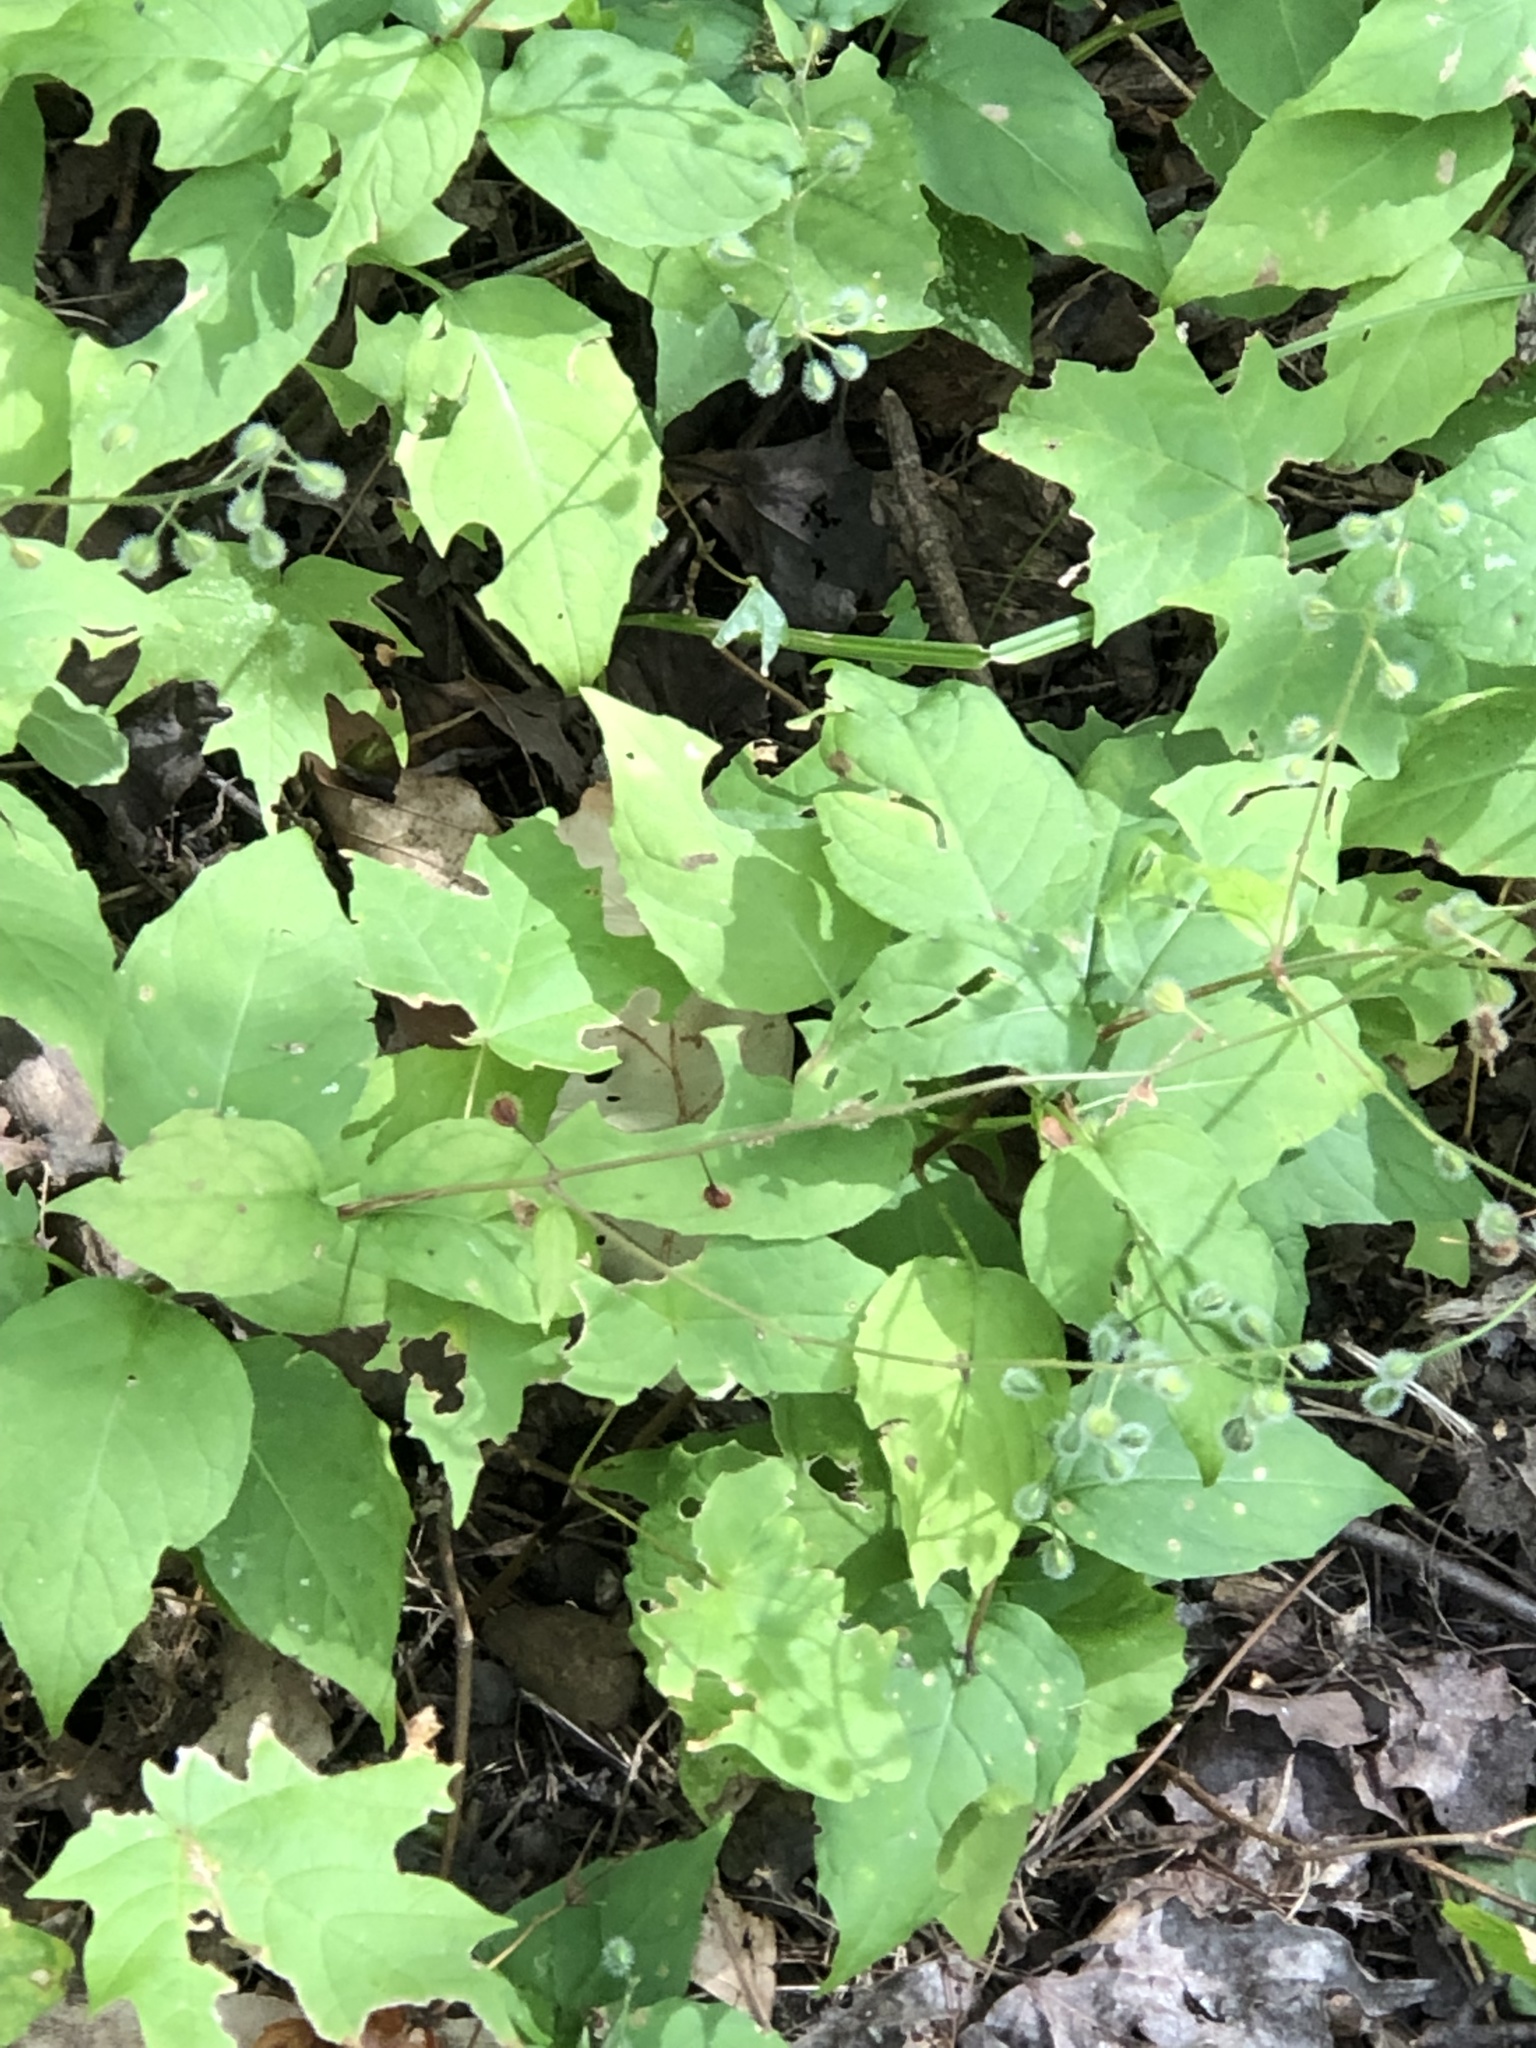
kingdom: Plantae
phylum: Tracheophyta
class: Magnoliopsida
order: Myrtales
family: Onagraceae
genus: Circaea
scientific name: Circaea canadensis
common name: Broad-leaved enchanter's nightshade
